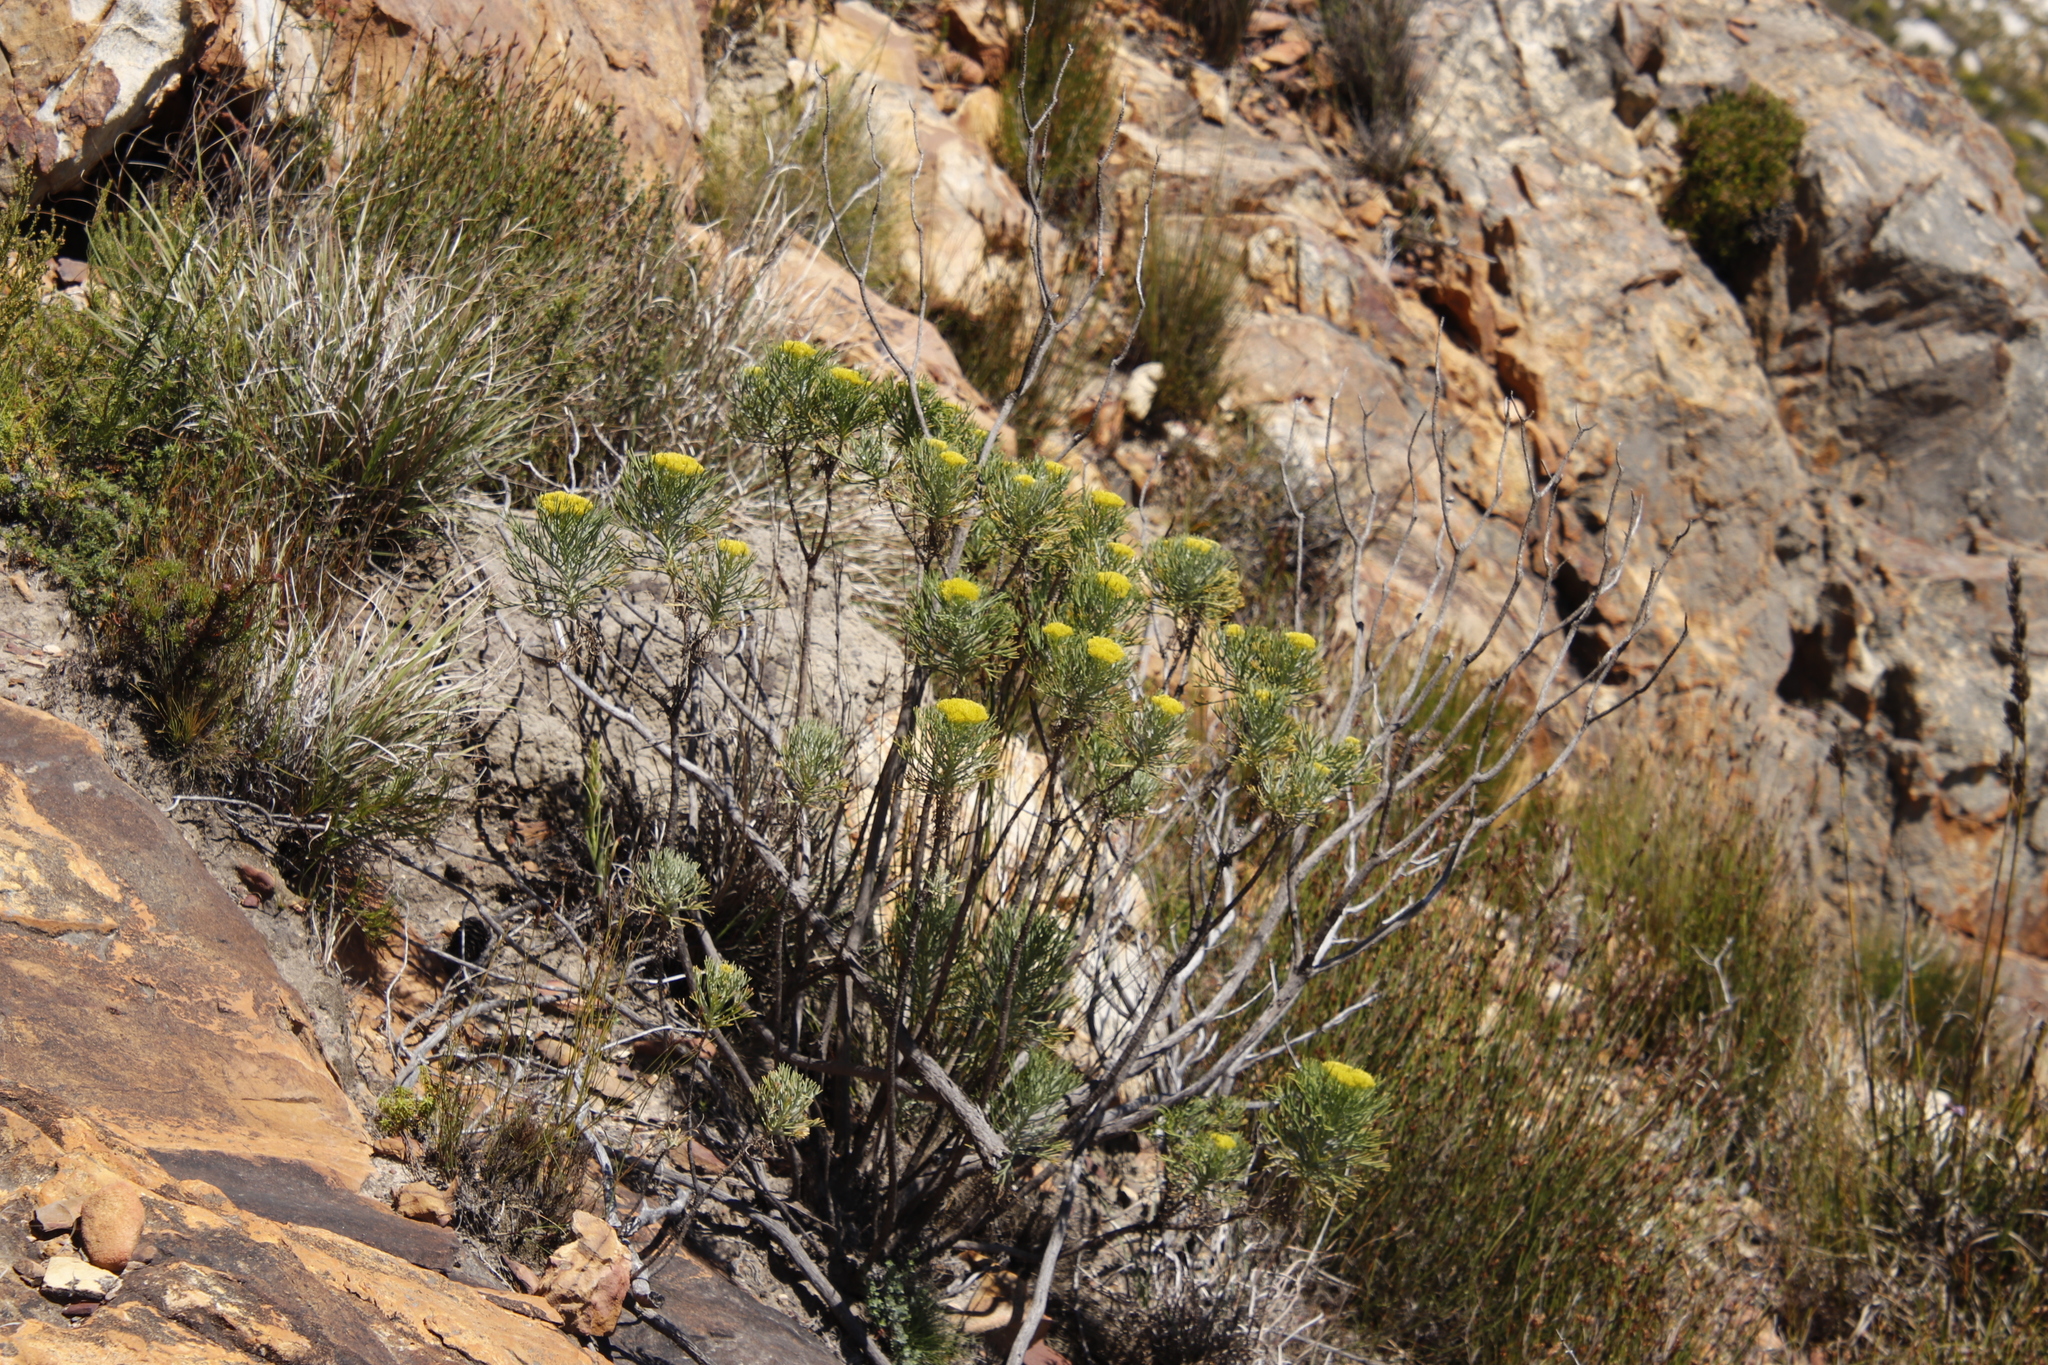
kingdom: Plantae
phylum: Tracheophyta
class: Magnoliopsida
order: Asterales
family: Asteraceae
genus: Hymenolepis
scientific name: Hymenolepis crithmifolia
